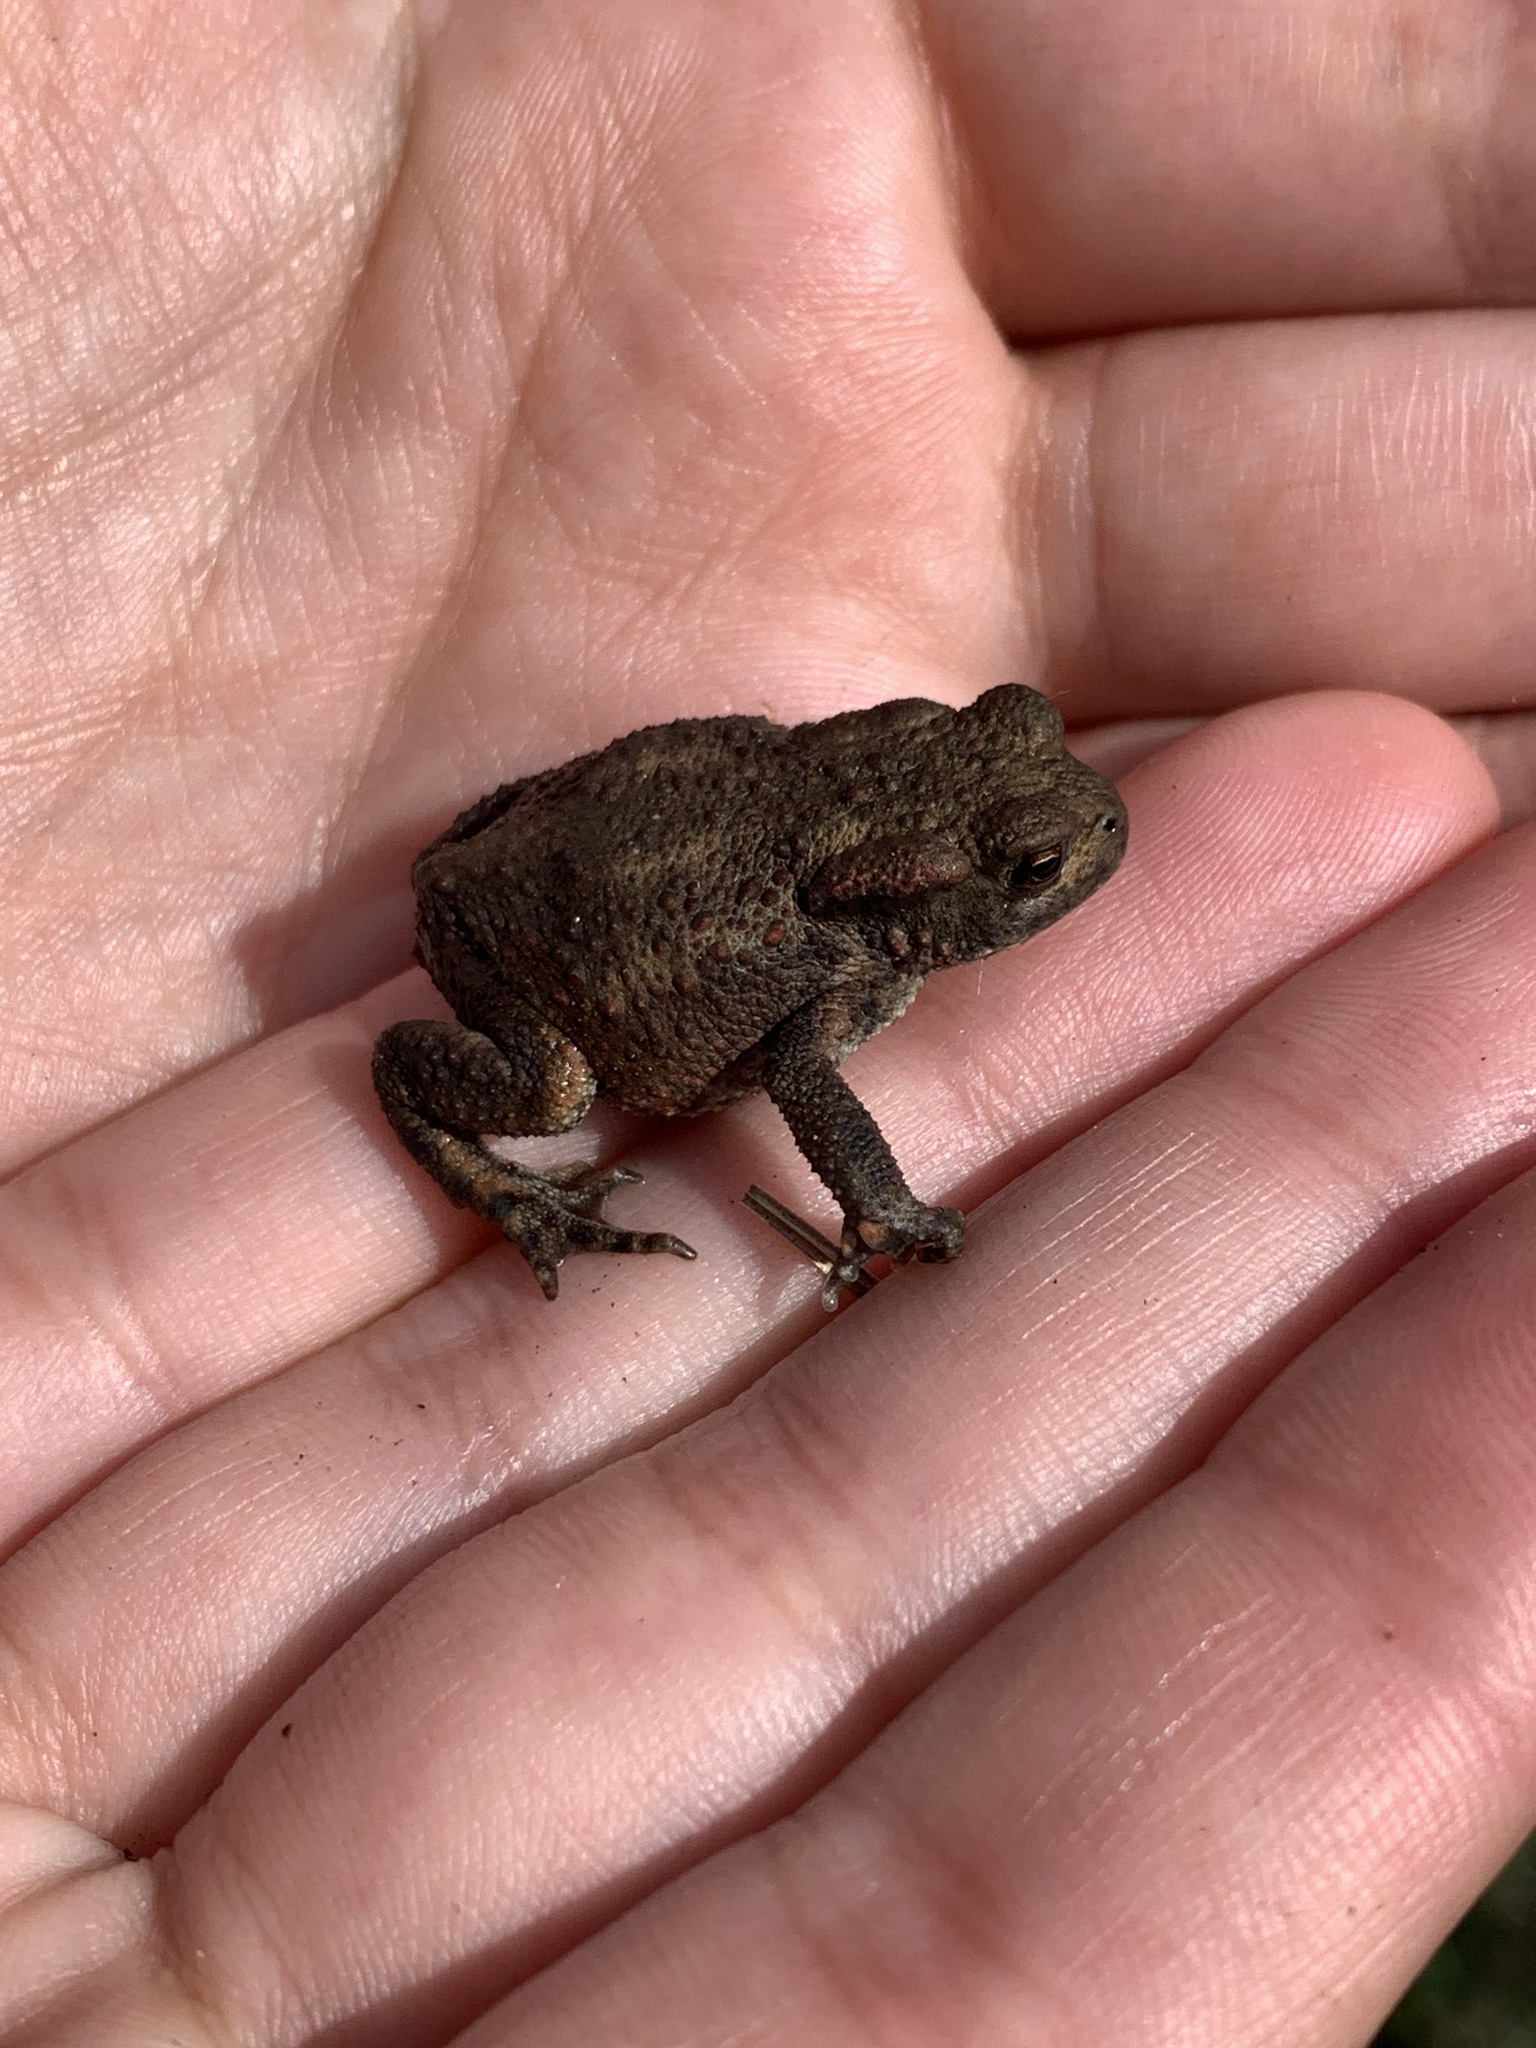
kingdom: Animalia
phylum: Chordata
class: Amphibia
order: Anura
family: Bufonidae
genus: Bufo
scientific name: Bufo bufo
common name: Common toad
